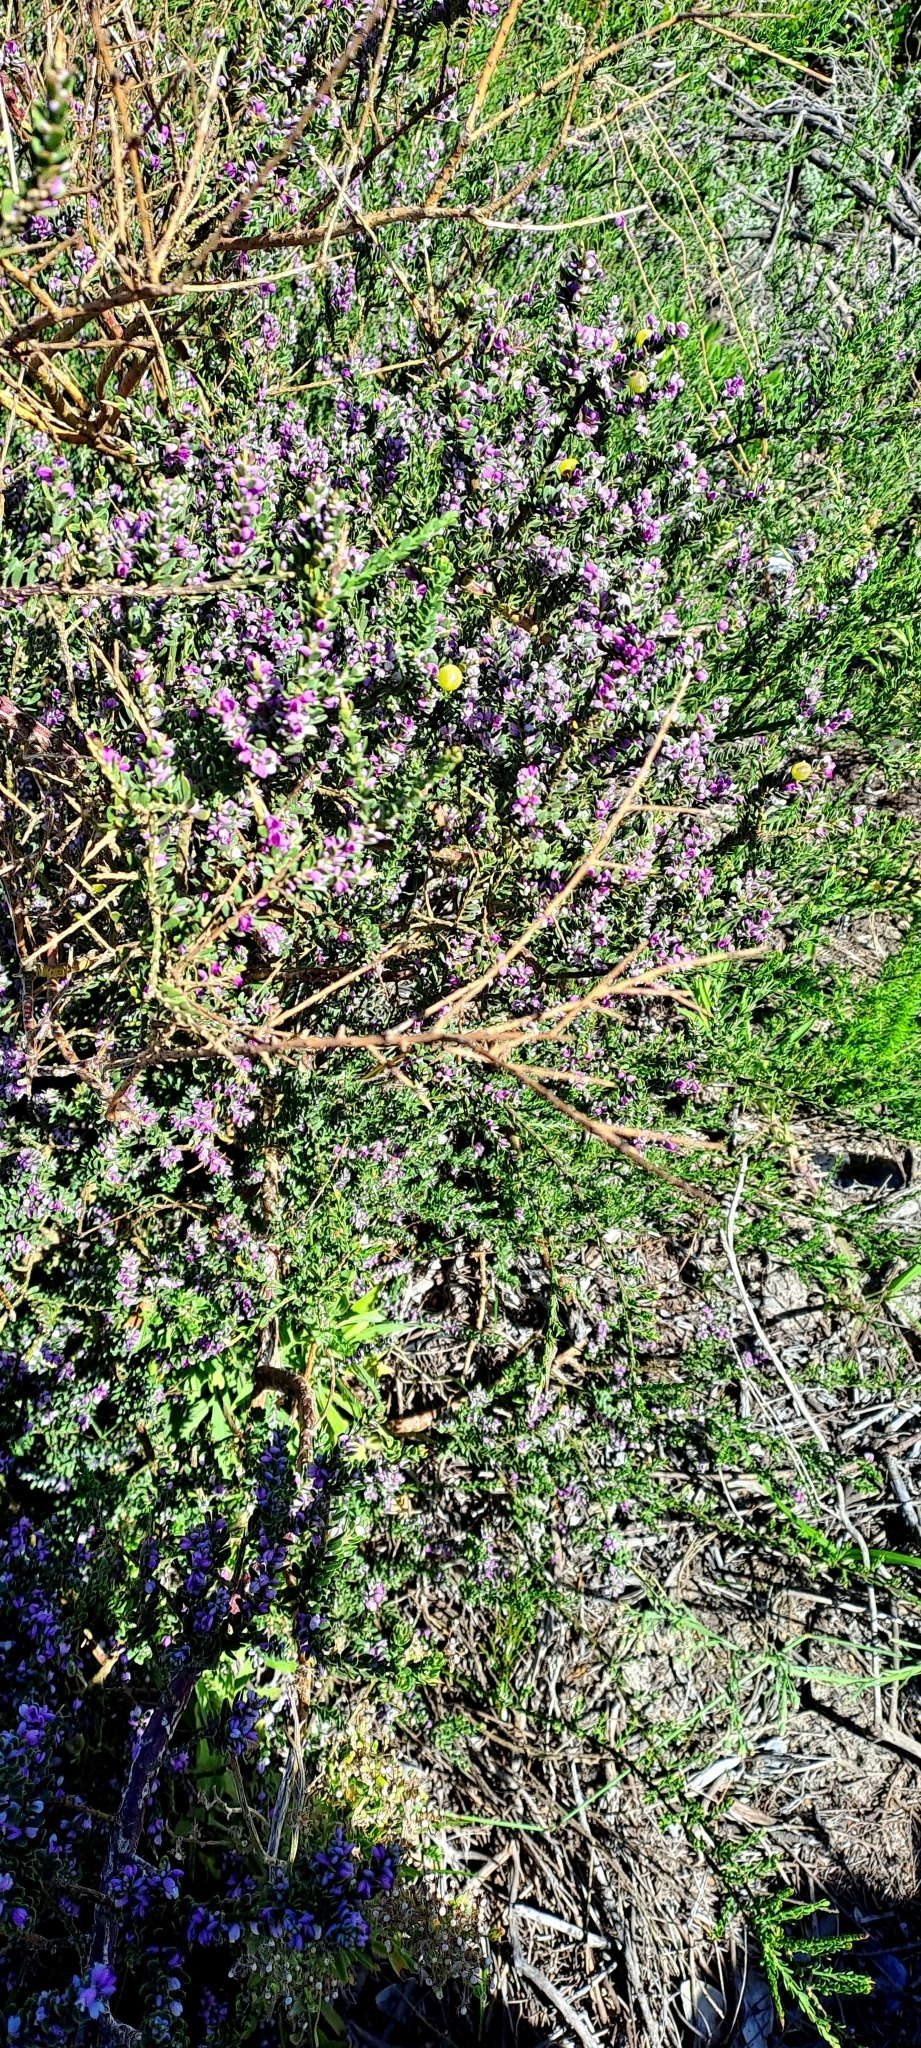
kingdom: Plantae
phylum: Tracheophyta
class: Magnoliopsida
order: Fabales
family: Polygalaceae
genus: Muraltia
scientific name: Muraltia spinosa
